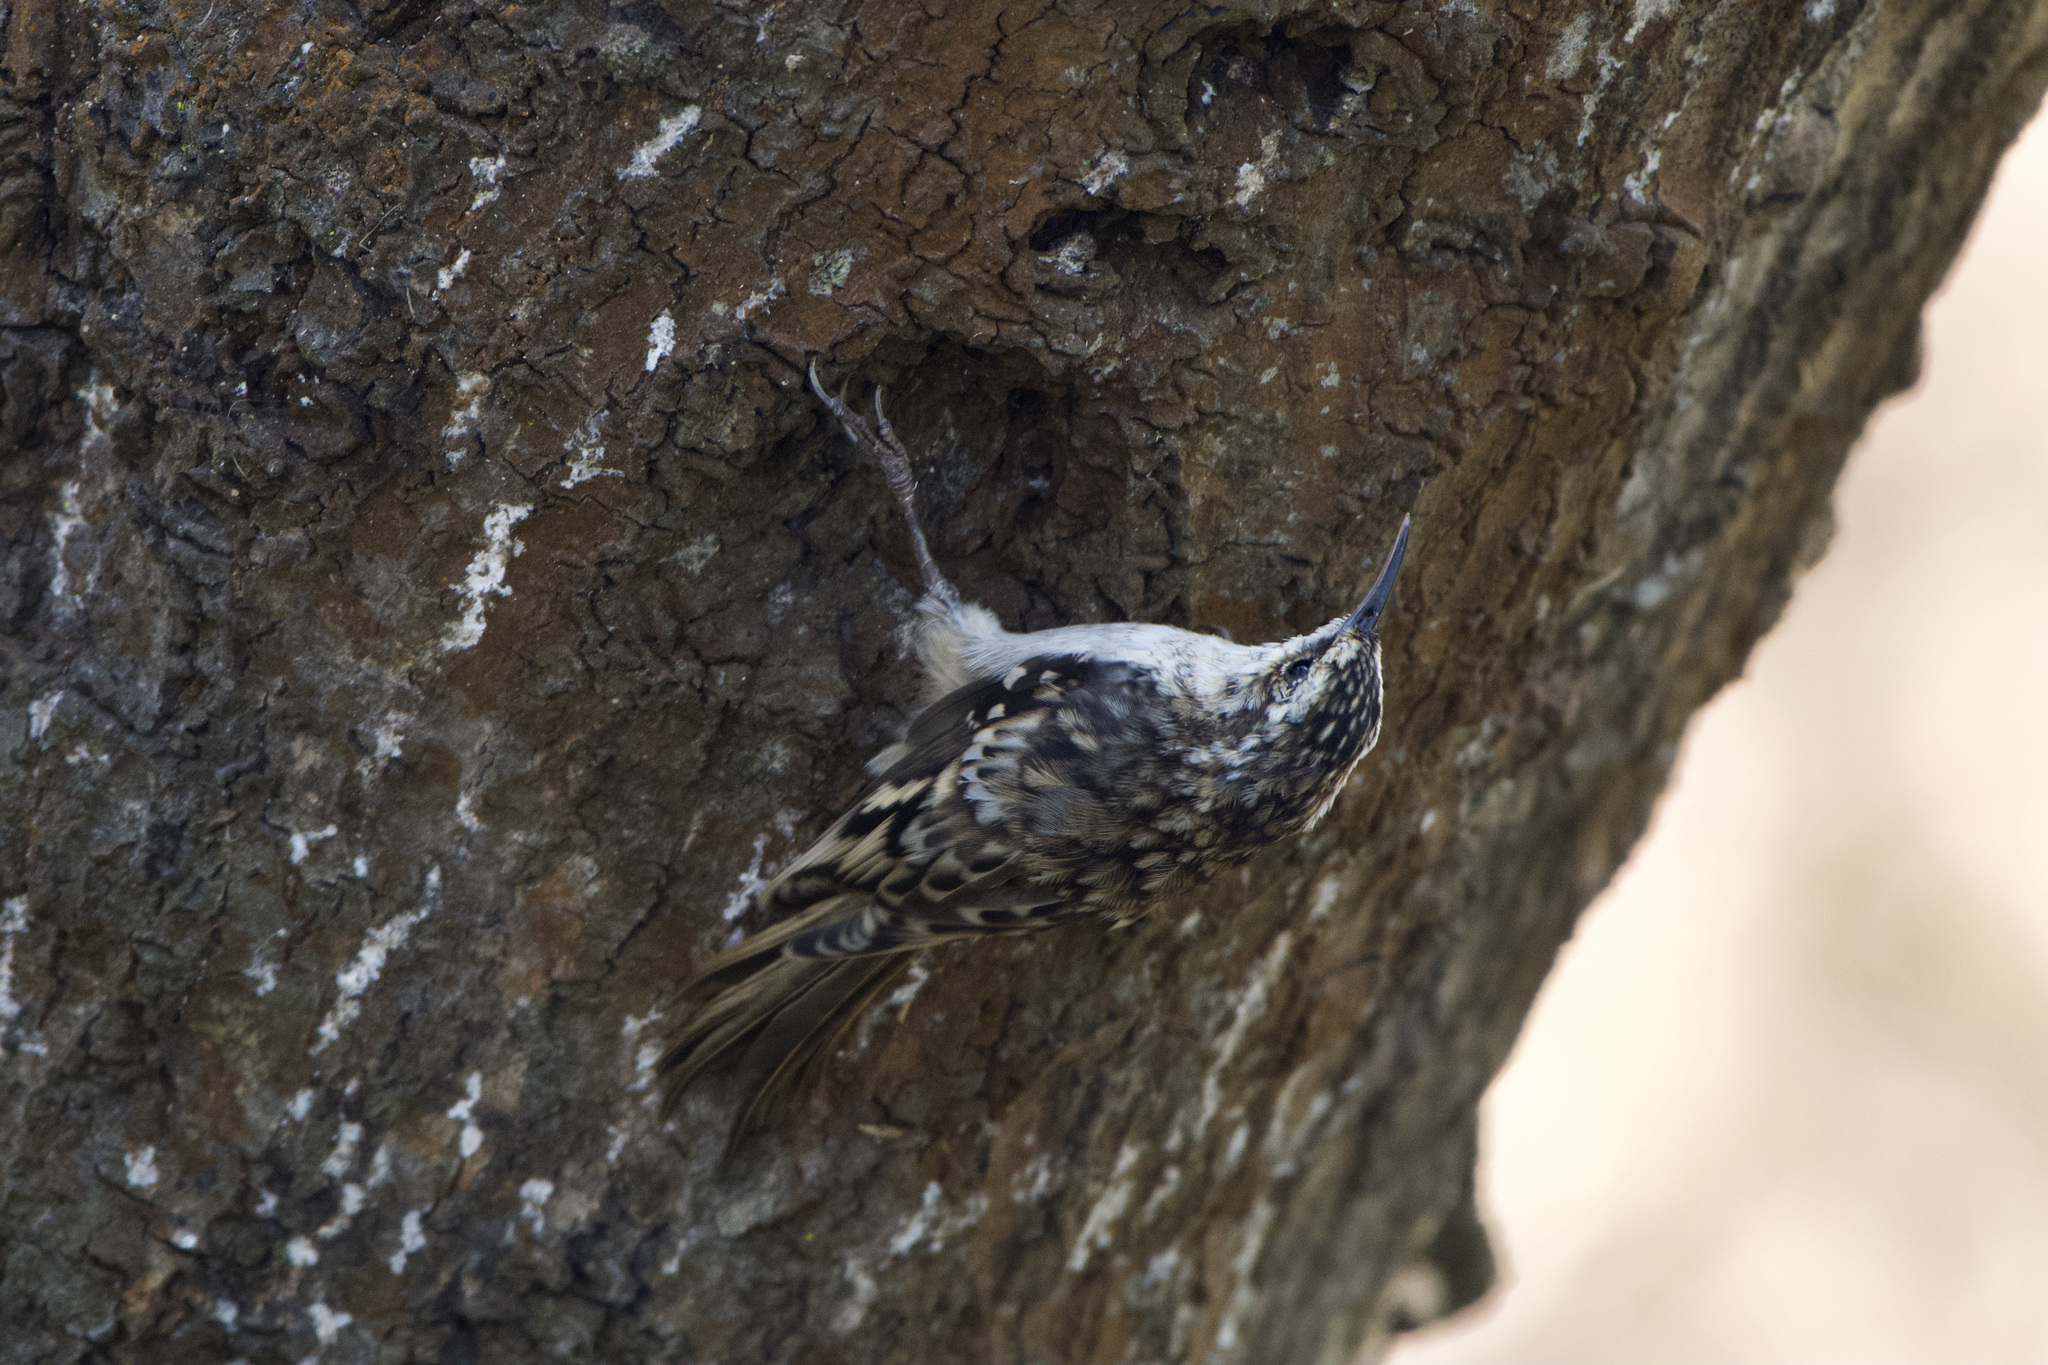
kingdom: Animalia
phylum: Chordata
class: Aves
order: Passeriformes
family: Certhiidae
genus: Certhia
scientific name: Certhia americana
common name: Brown creeper
